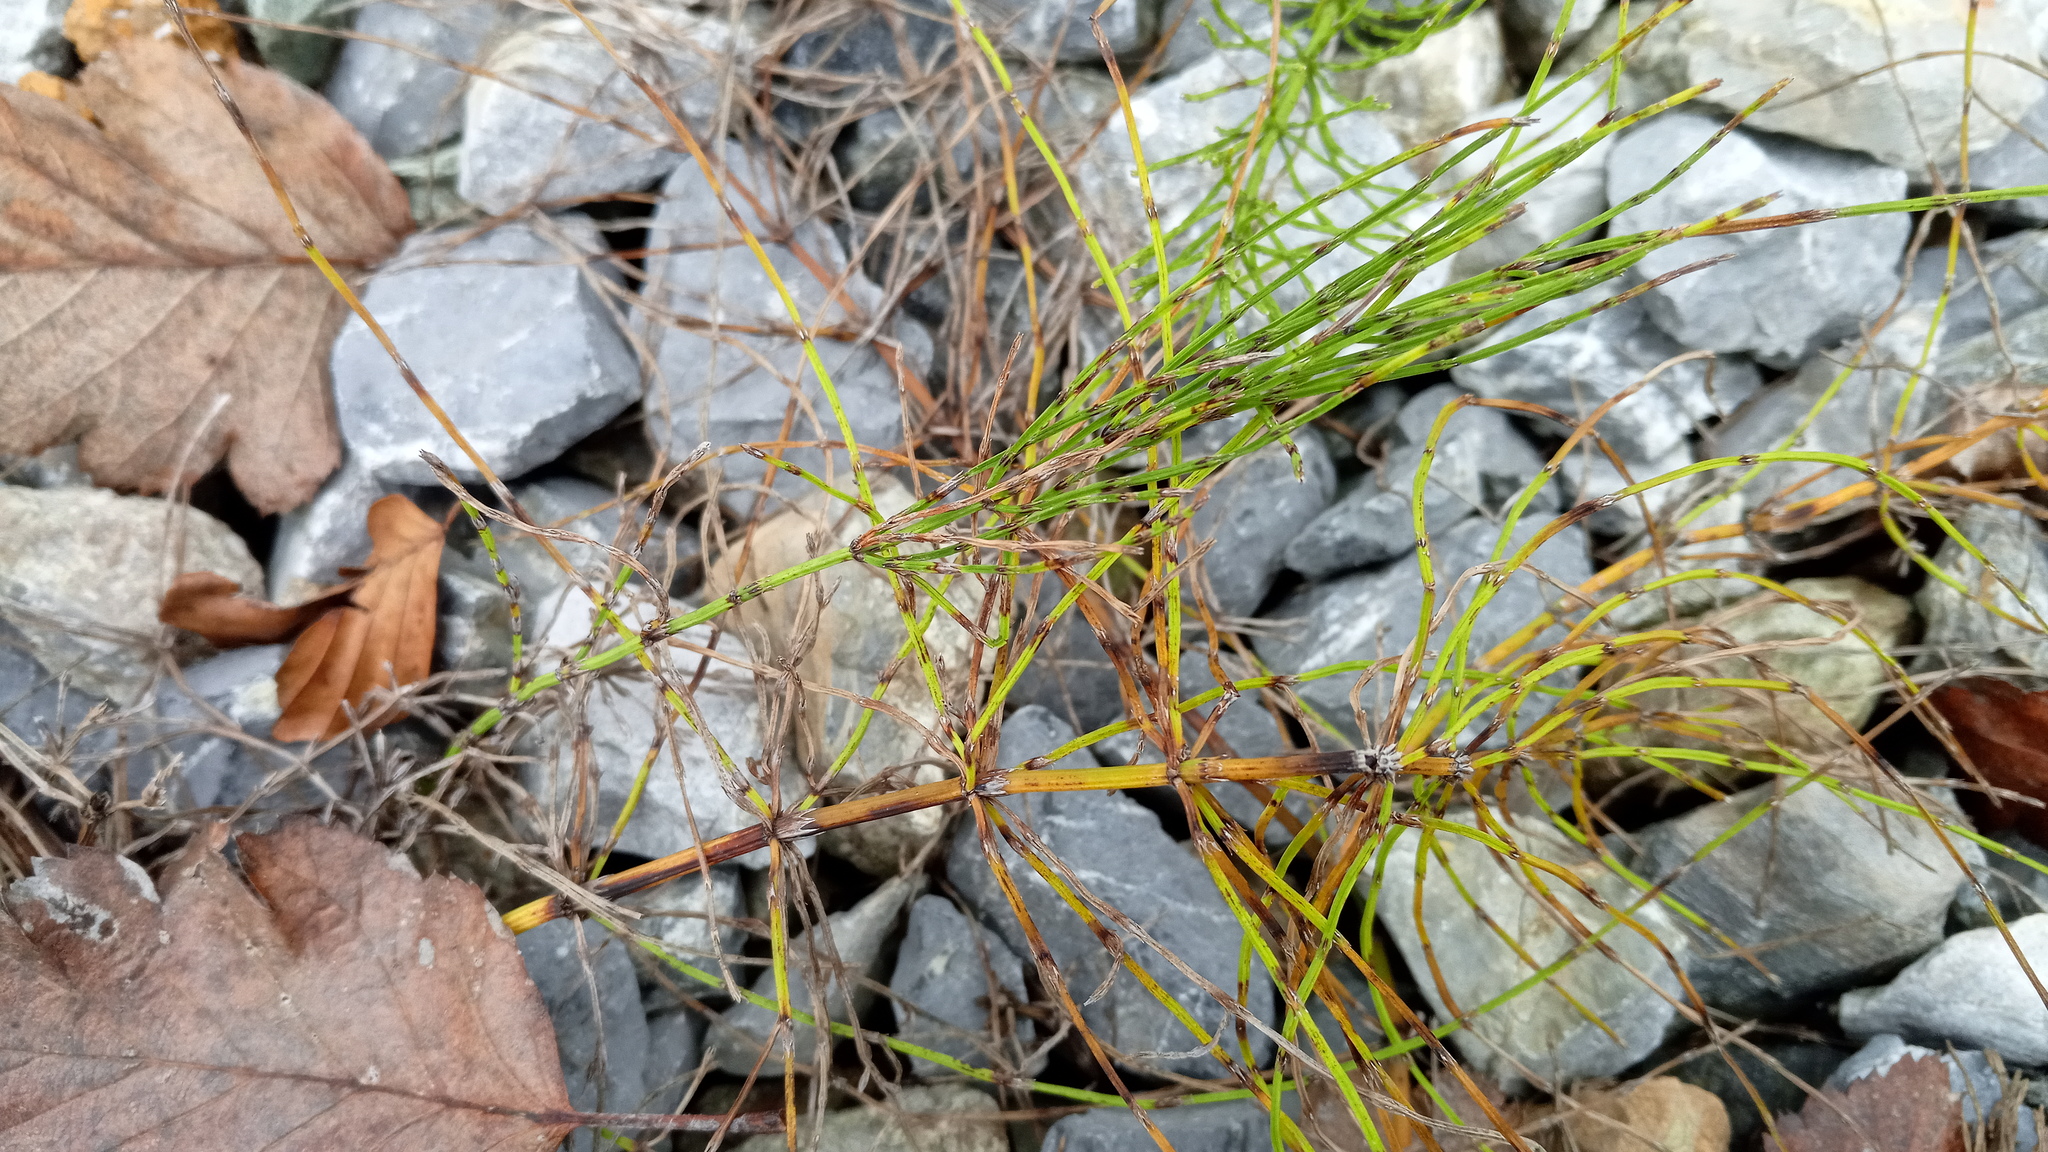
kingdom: Plantae
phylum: Tracheophyta
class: Polypodiopsida
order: Equisetales
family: Equisetaceae
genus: Equisetum
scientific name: Equisetum arvense
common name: Field horsetail
